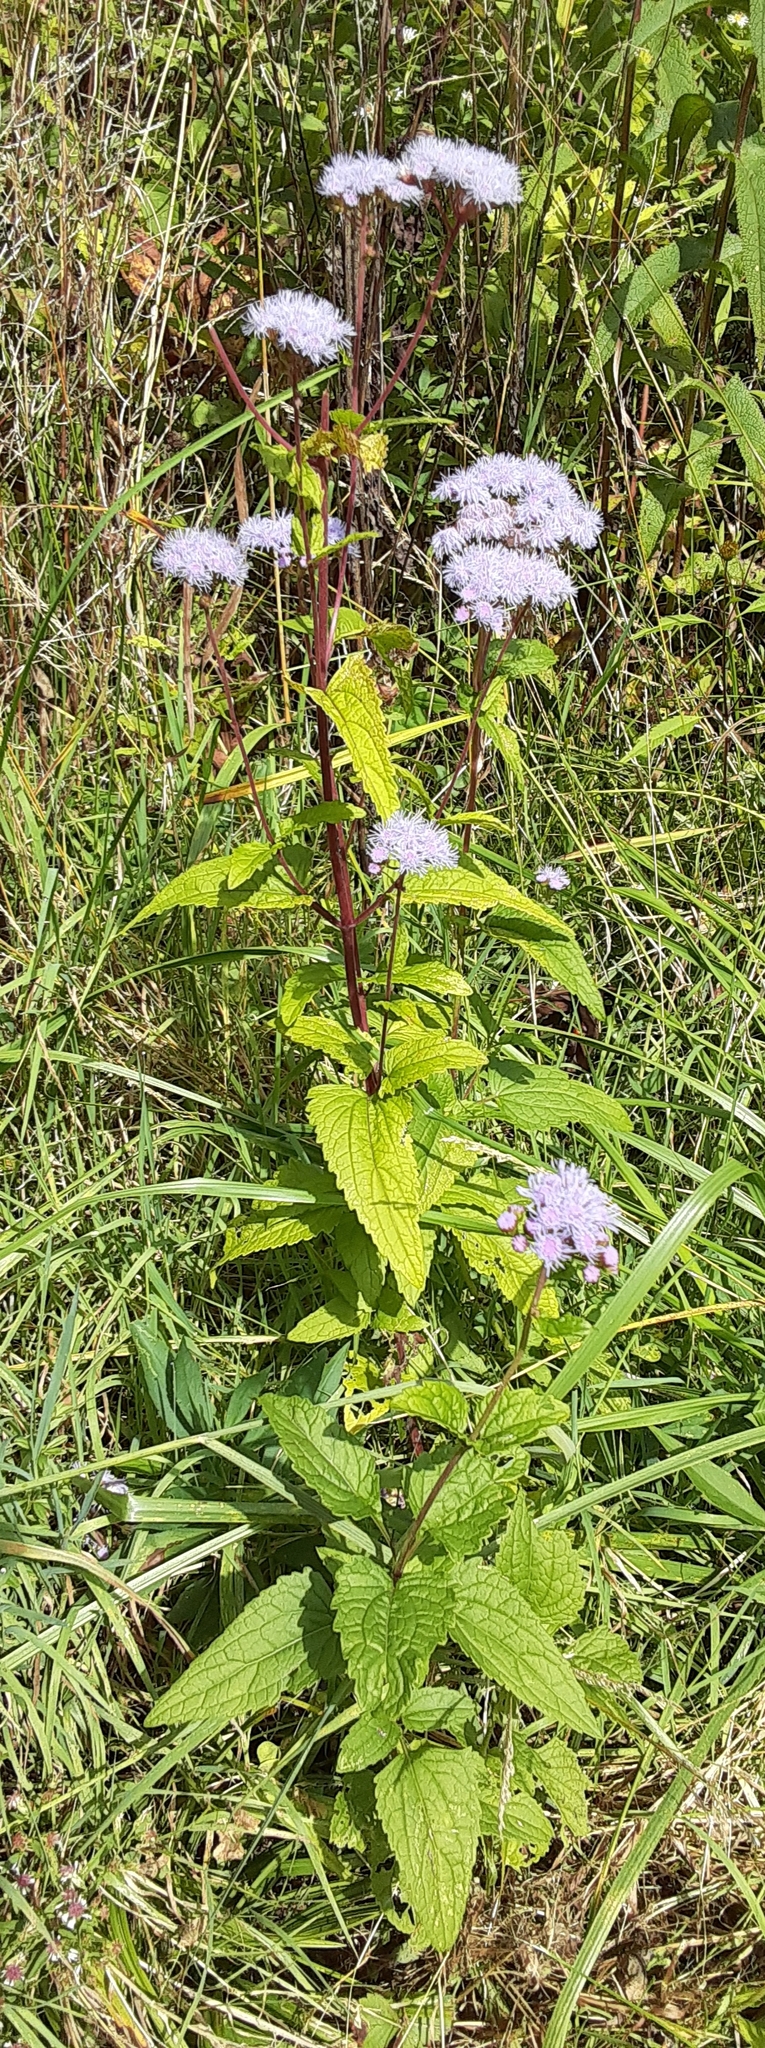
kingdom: Plantae
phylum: Tracheophyta
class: Magnoliopsida
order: Asterales
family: Asteraceae
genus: Conoclinium
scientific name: Conoclinium coelestinum
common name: Blue mistflower
